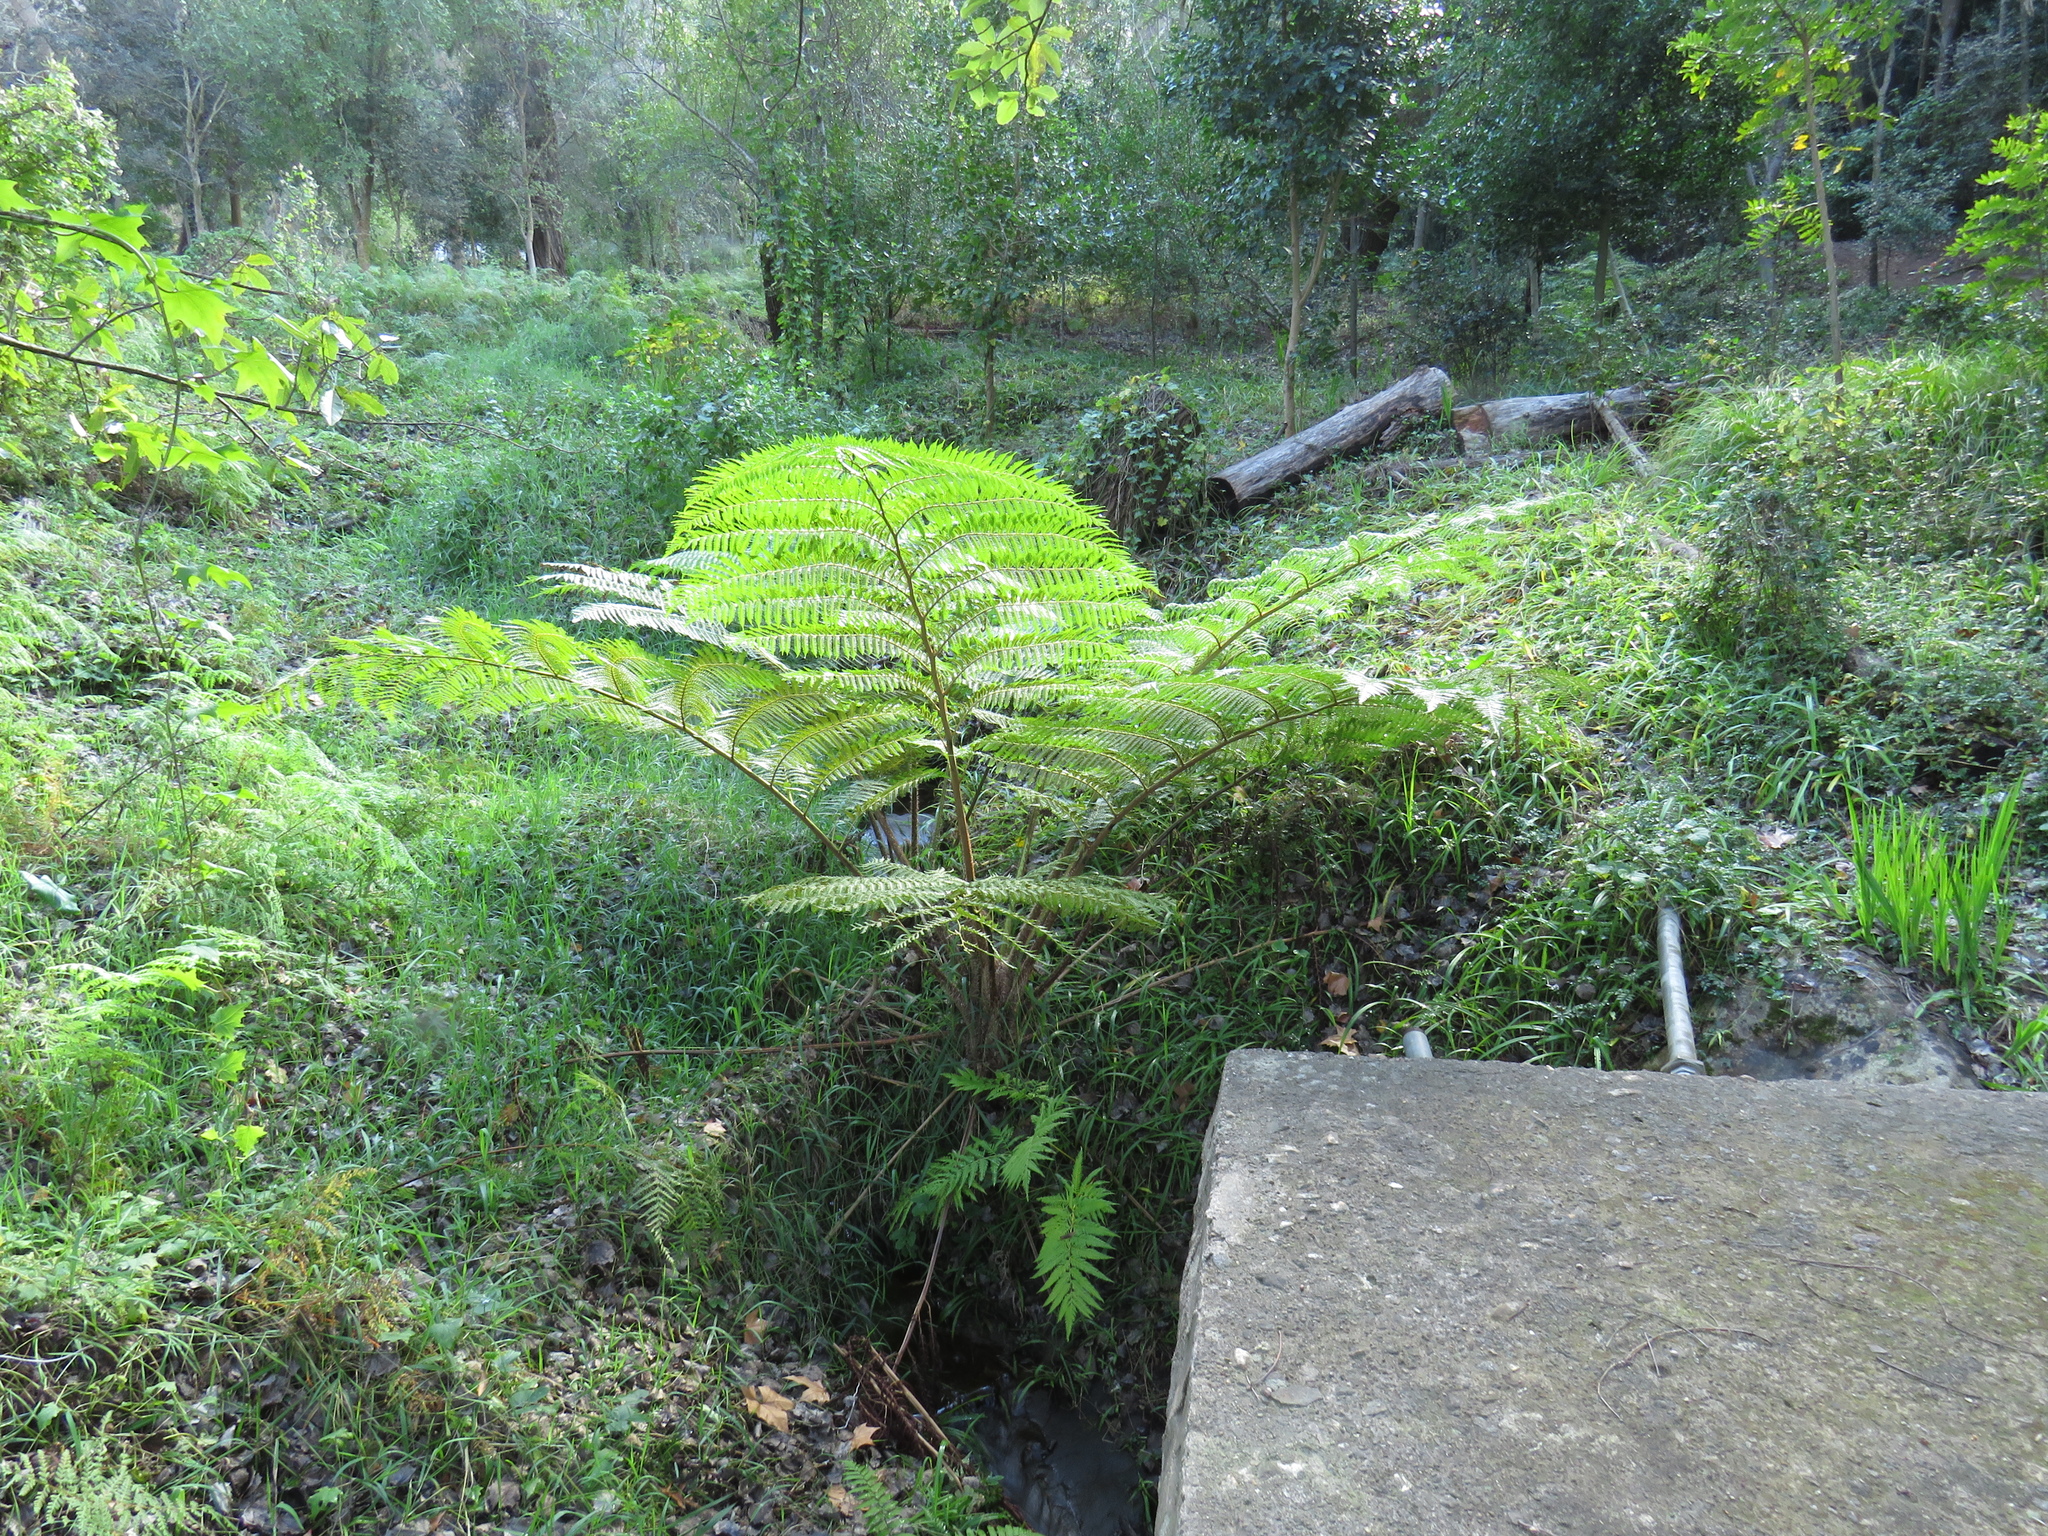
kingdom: Plantae
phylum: Tracheophyta
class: Polypodiopsida
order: Cyatheales
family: Cyatheaceae
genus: Sphaeropteris
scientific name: Sphaeropteris cooperi
